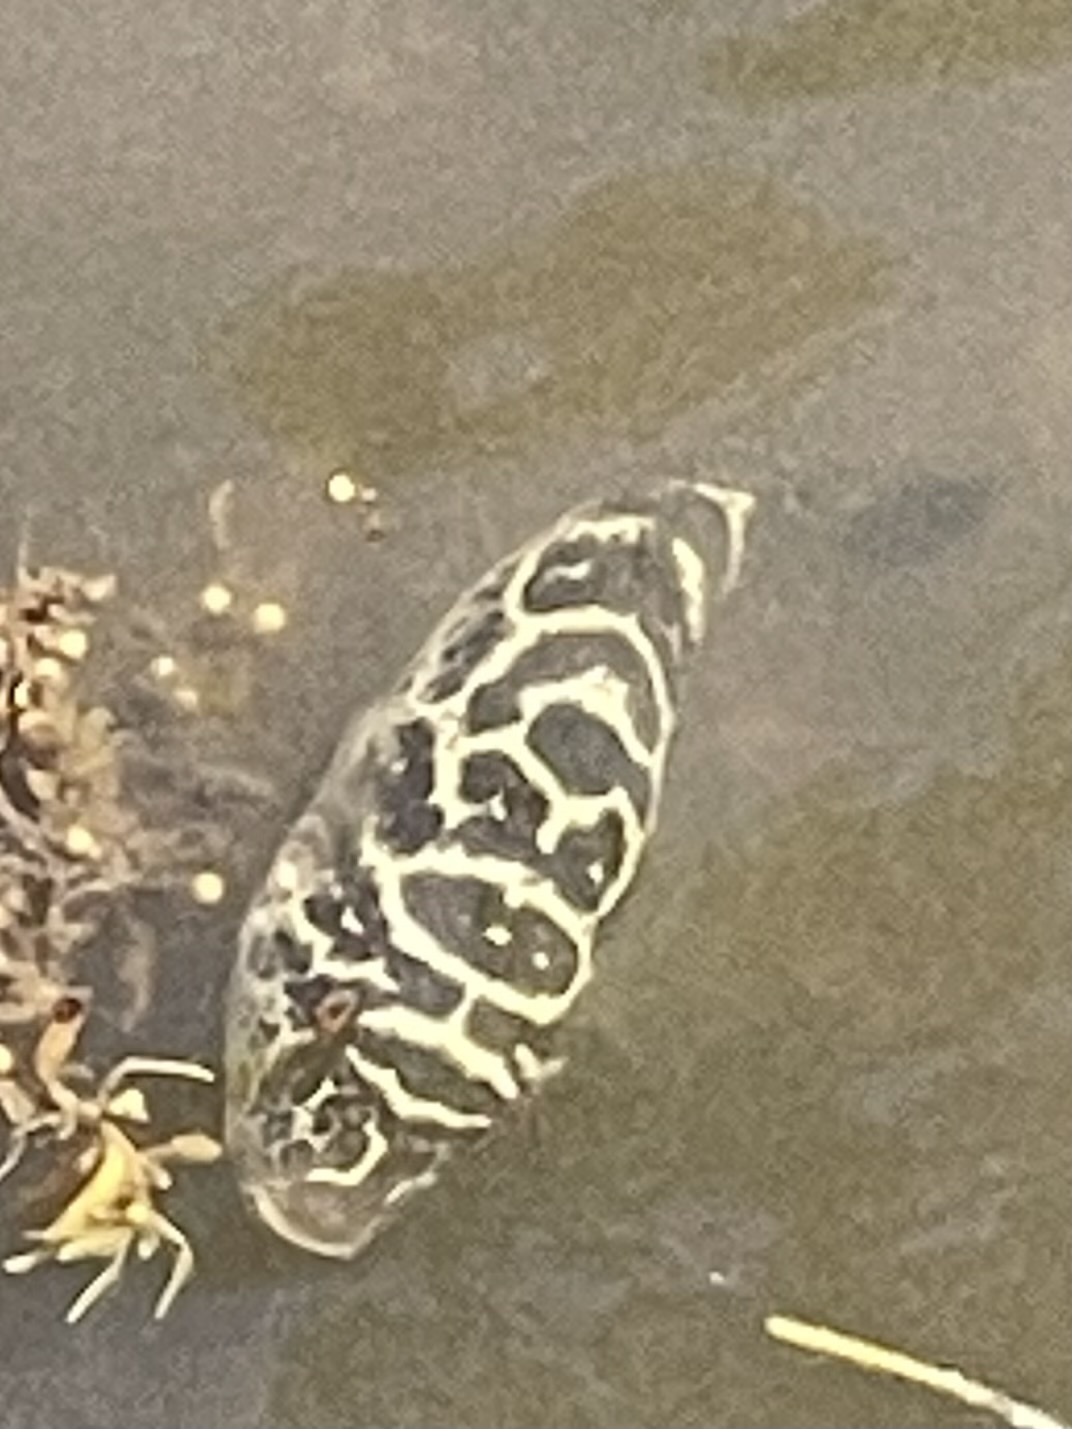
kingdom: Animalia
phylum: Chordata
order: Tetraodontiformes
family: Tetraodontidae
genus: Sphoeroides
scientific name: Sphoeroides testudineus
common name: Checkered puffer
